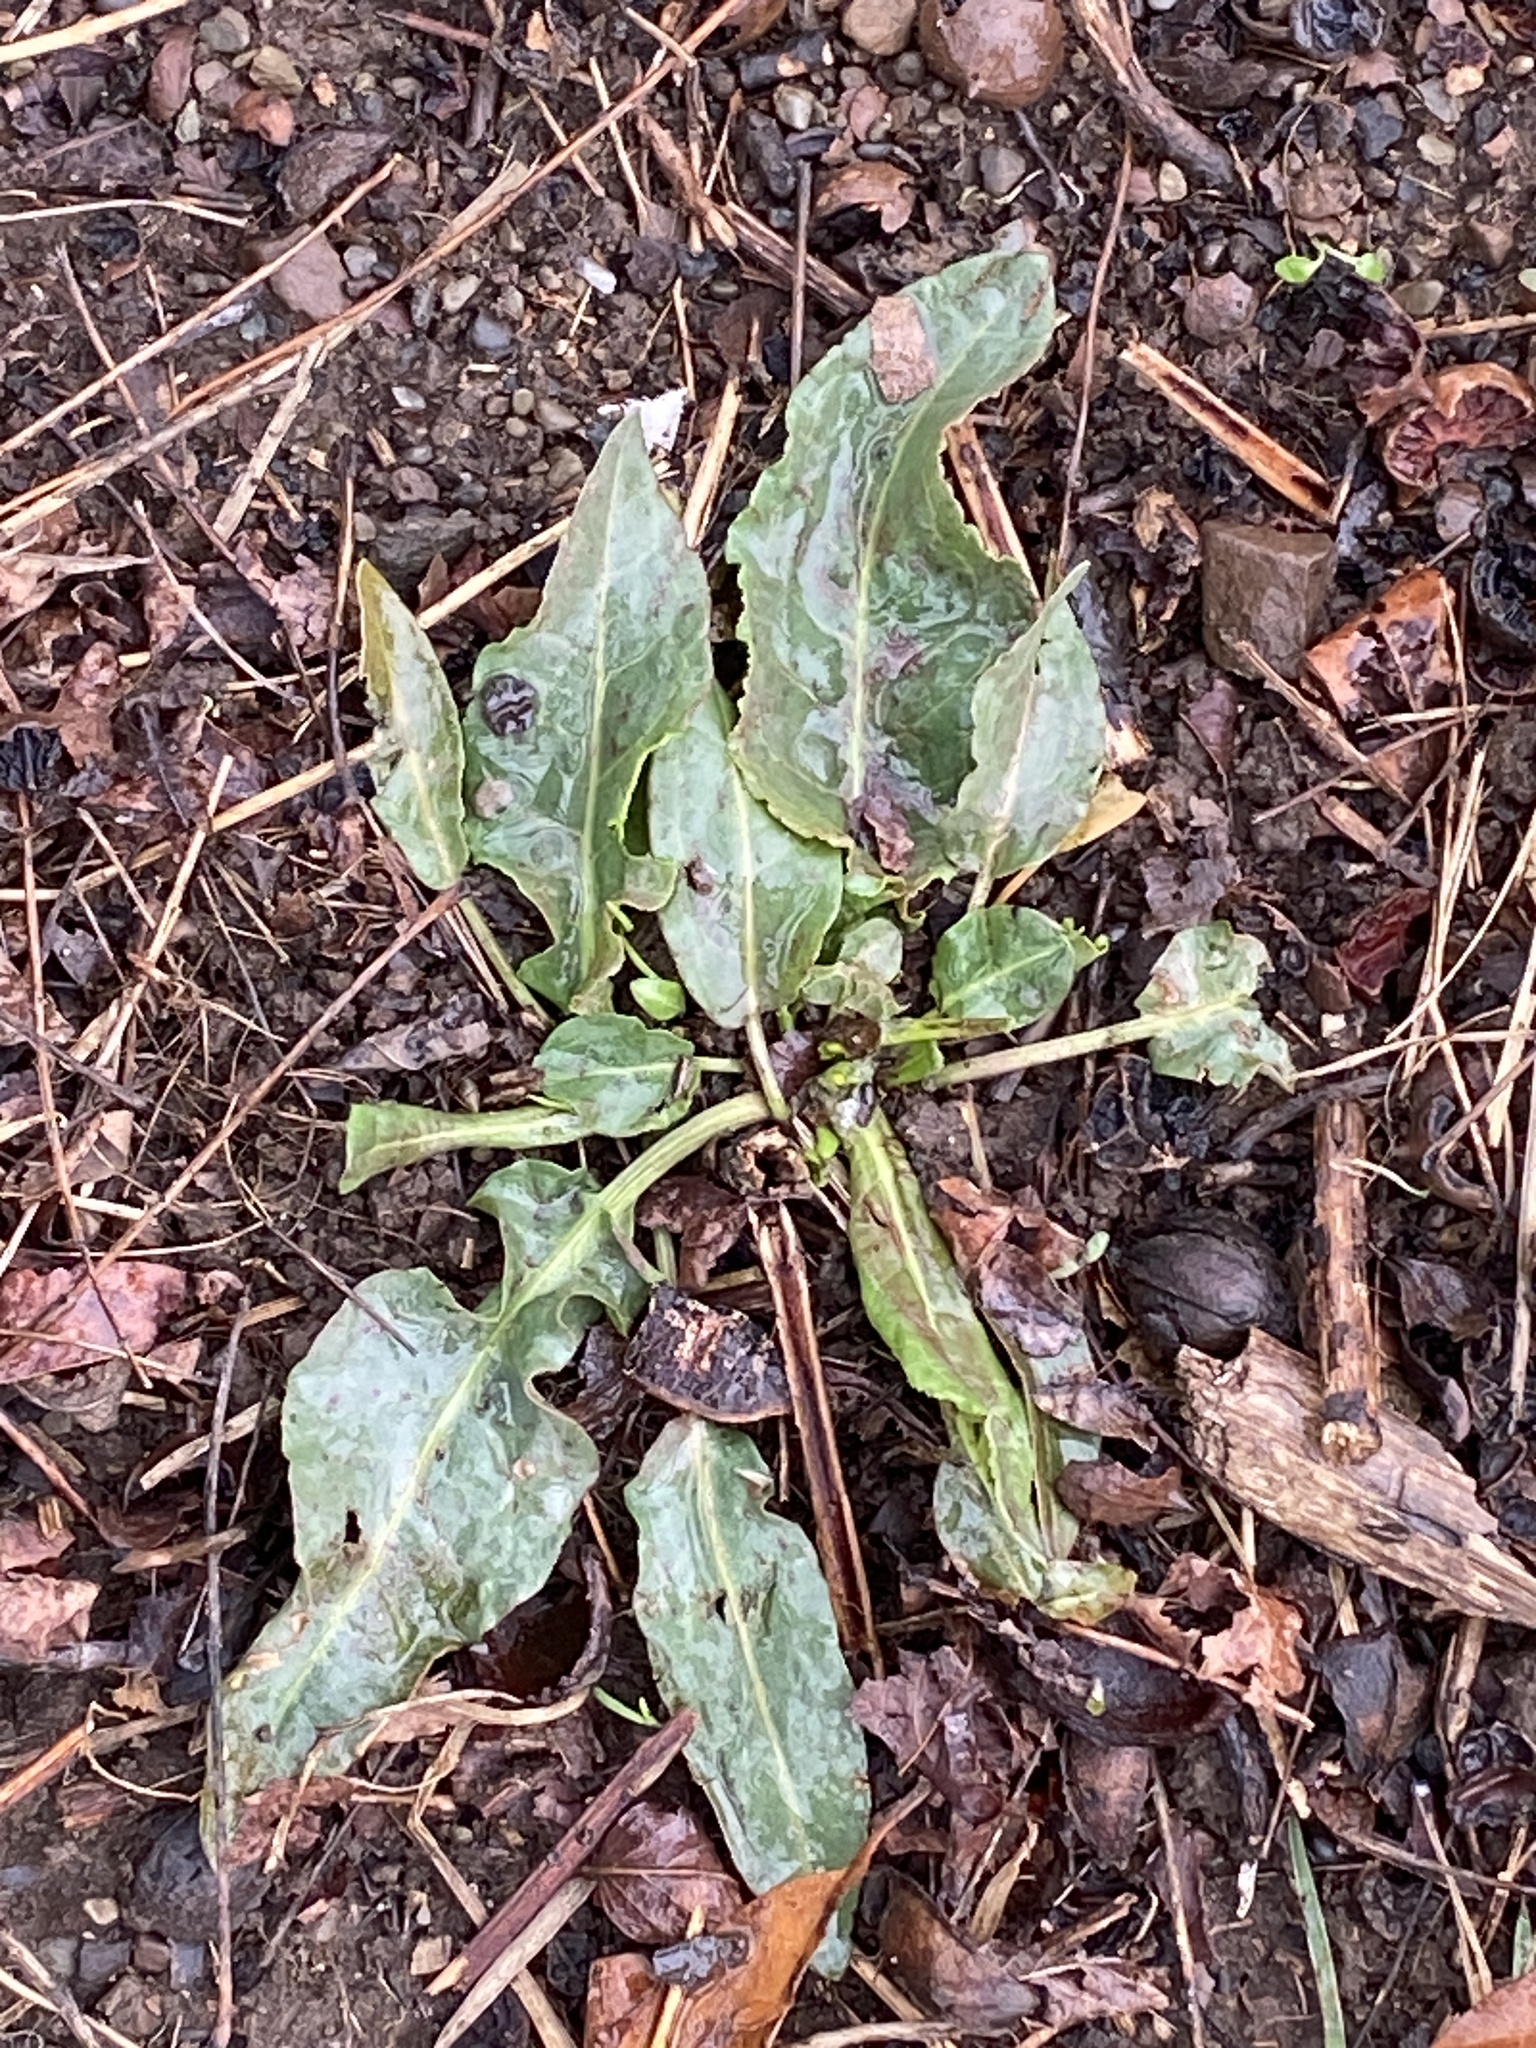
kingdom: Plantae
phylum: Tracheophyta
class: Magnoliopsida
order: Caryophyllales
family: Polygonaceae
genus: Rumex
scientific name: Rumex crispus
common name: Curled dock
